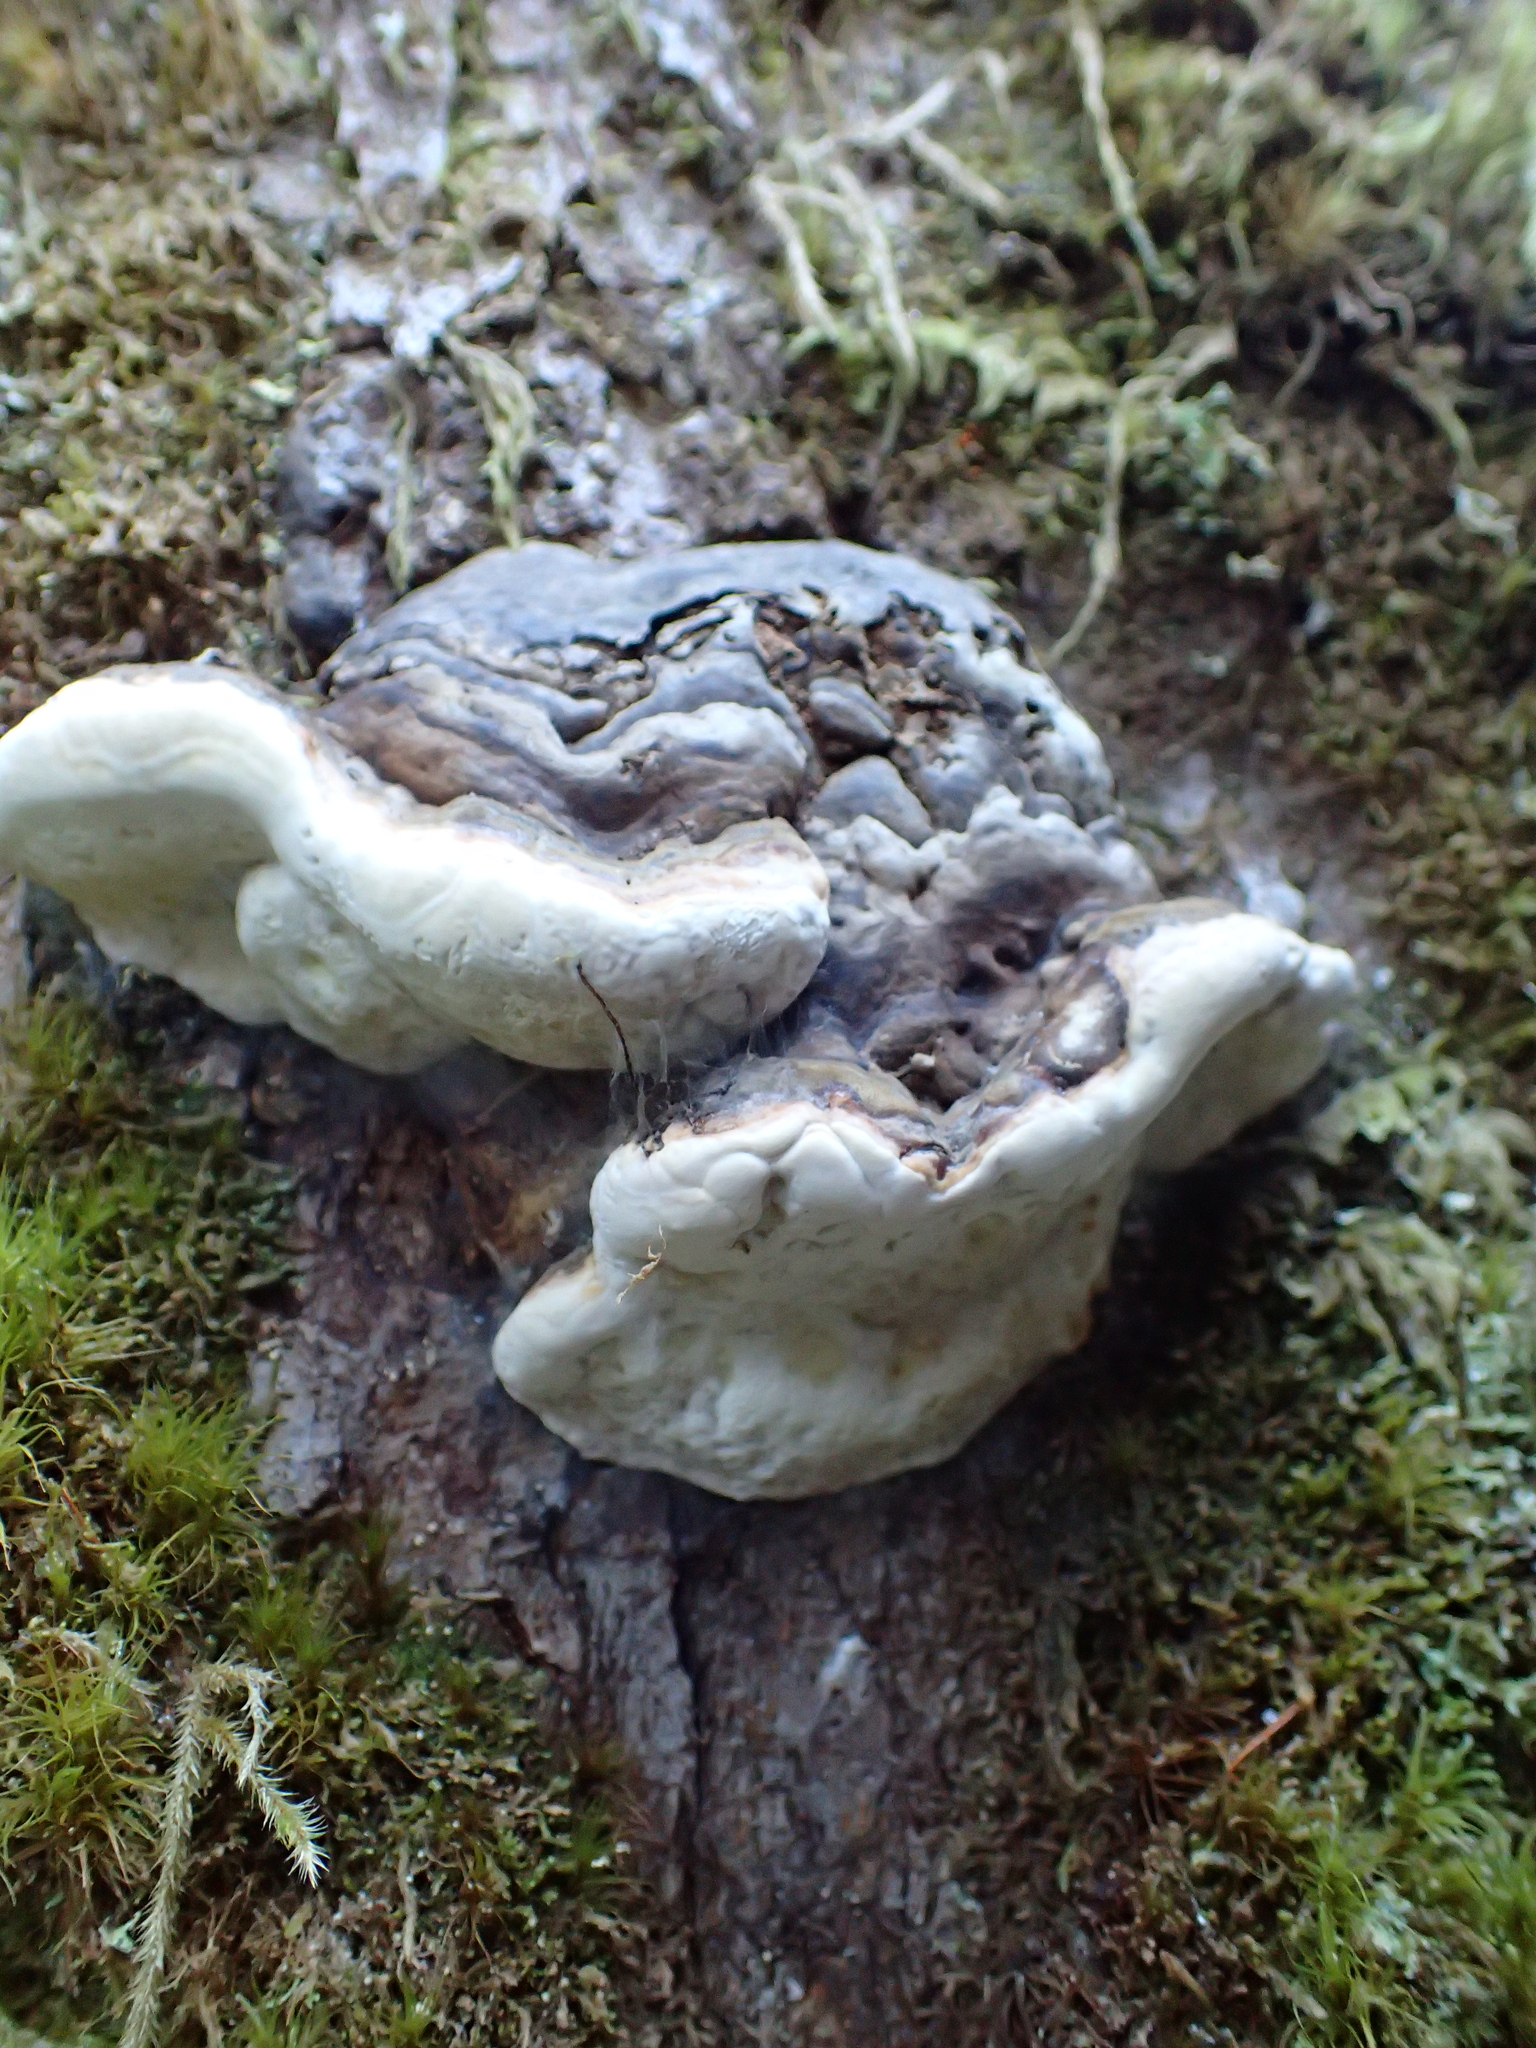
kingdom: Fungi
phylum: Basidiomycota
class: Agaricomycetes
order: Polyporales
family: Fomitopsidaceae
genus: Fomitopsis
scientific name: Fomitopsis ochracea
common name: American brown fomitopsis
